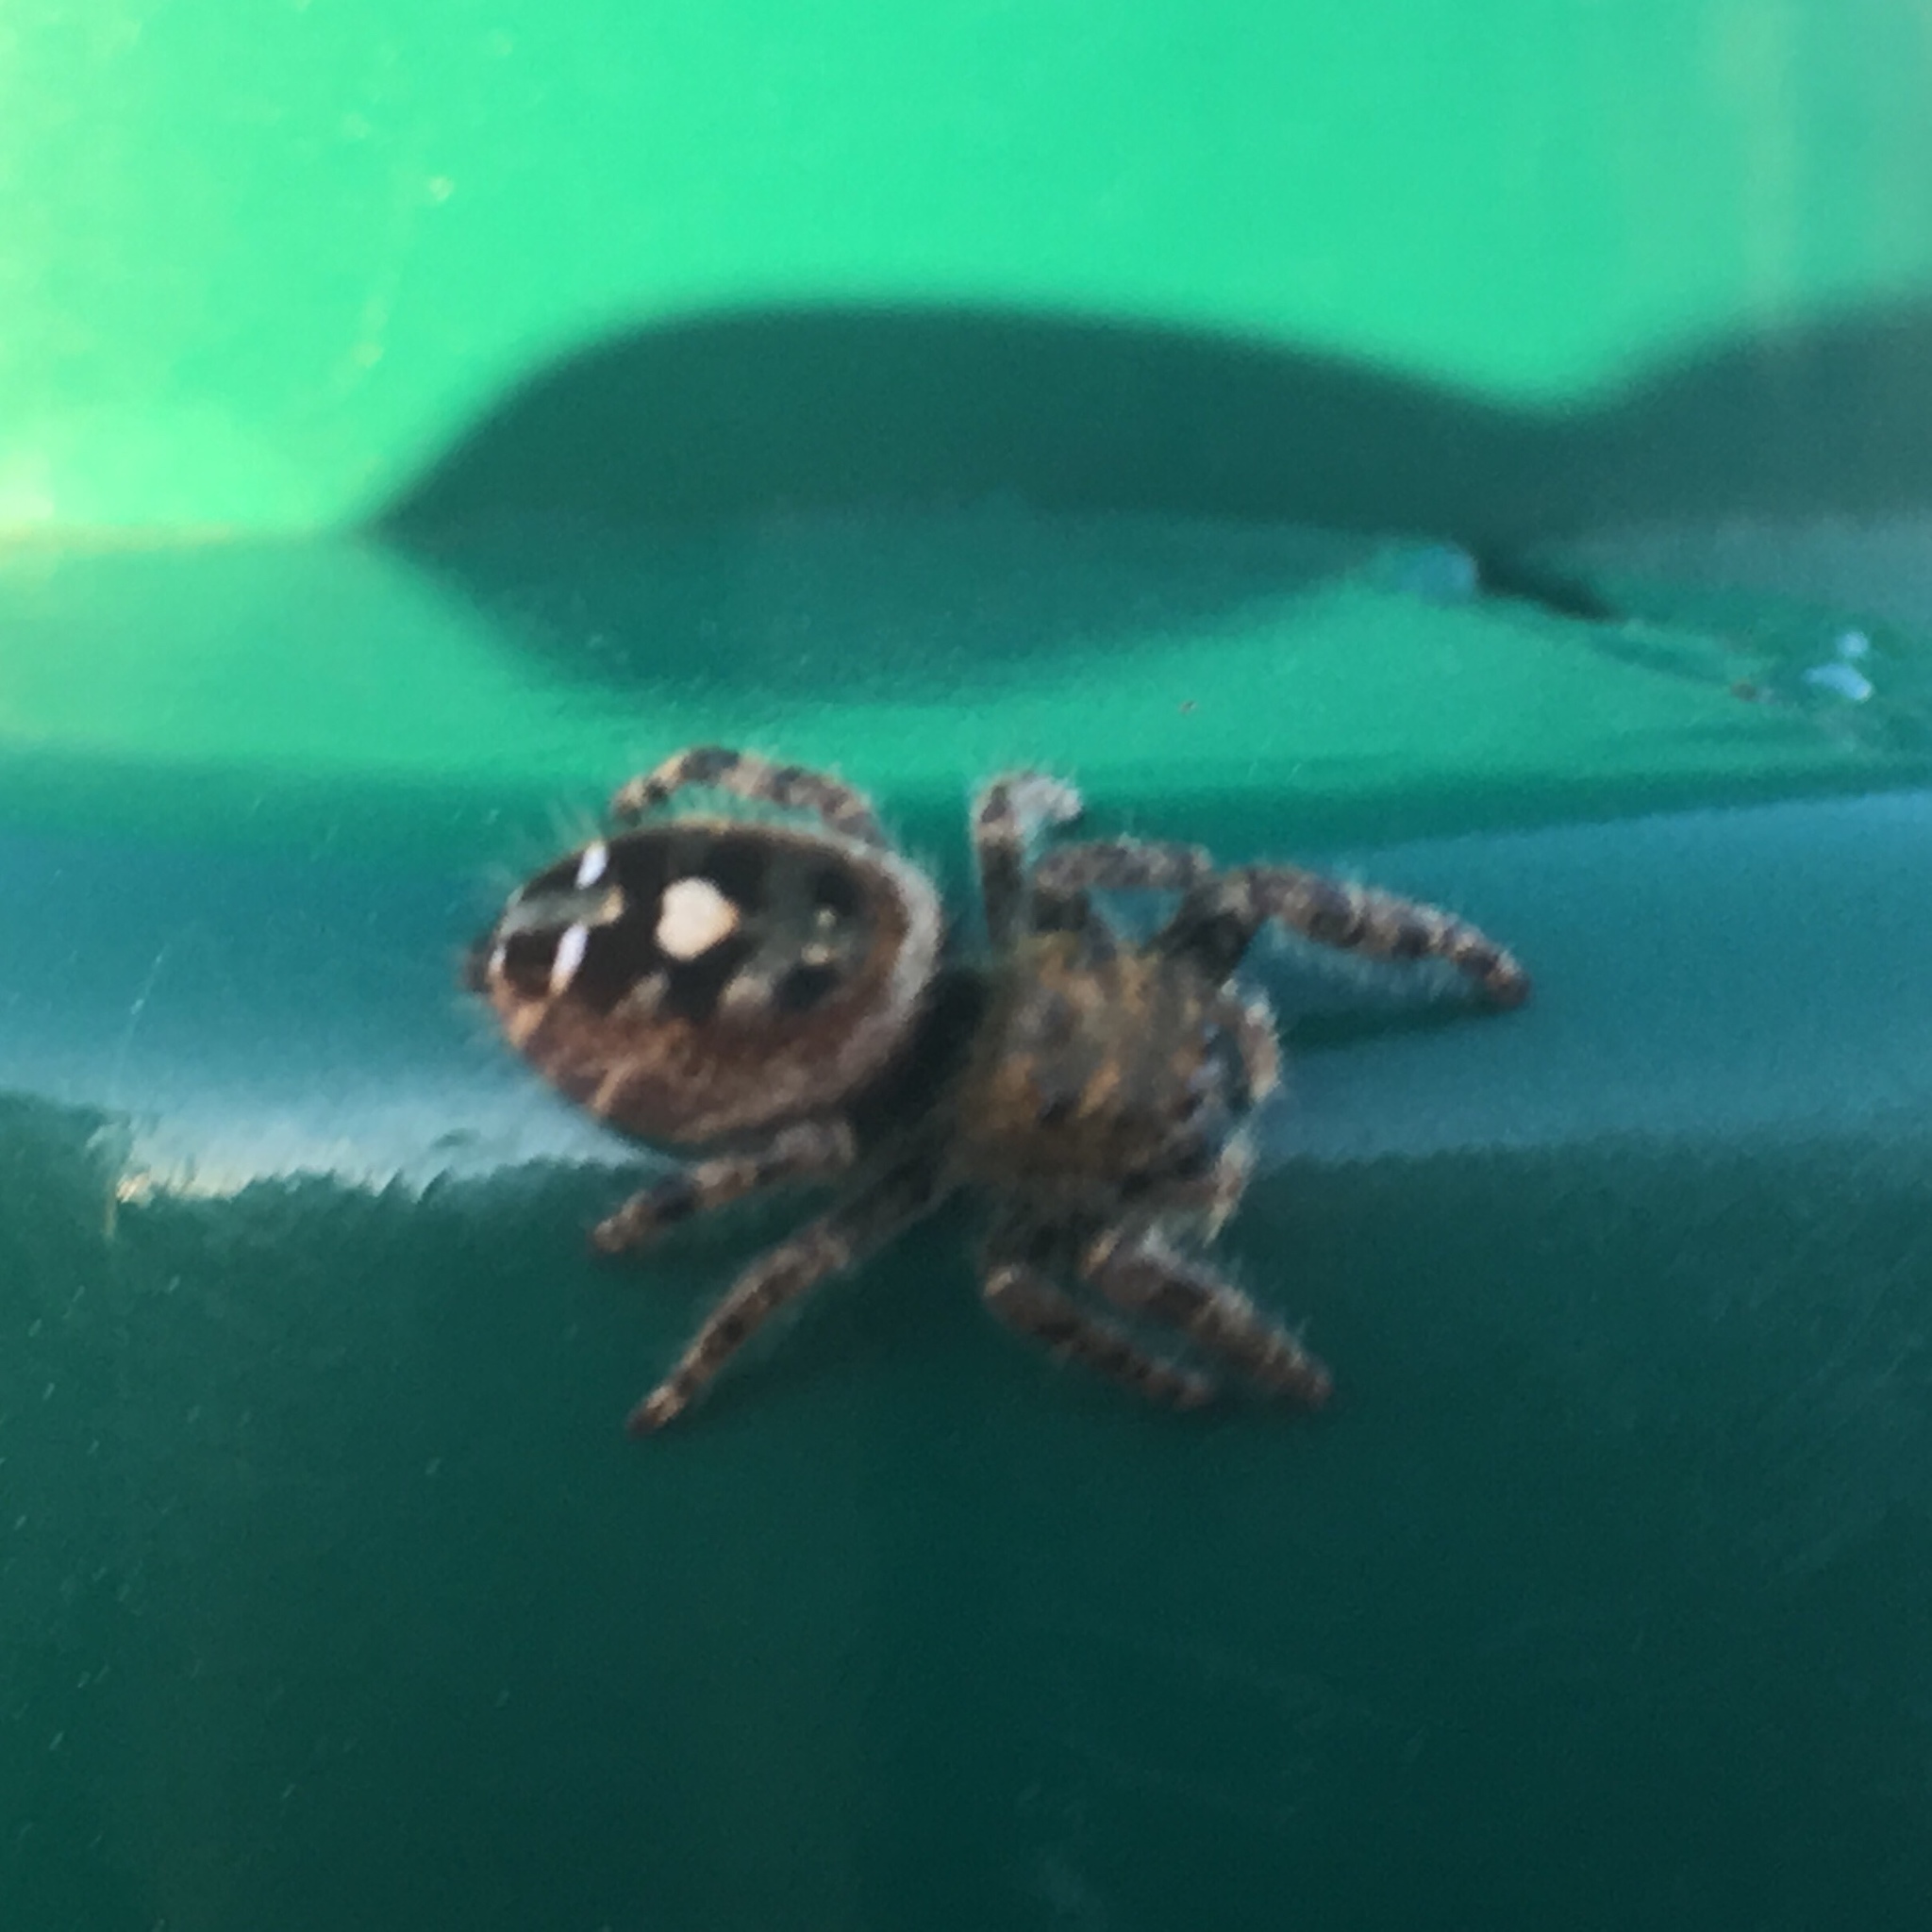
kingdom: Animalia
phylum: Arthropoda
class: Arachnida
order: Araneae
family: Salticidae
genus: Phidippus
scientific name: Phidippus audax
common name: Bold jumper
